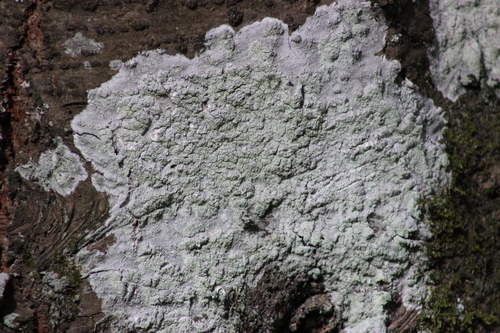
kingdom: Fungi
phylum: Ascomycota
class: Lecanoromycetes
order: Pertusariales
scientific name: Pertusariales
